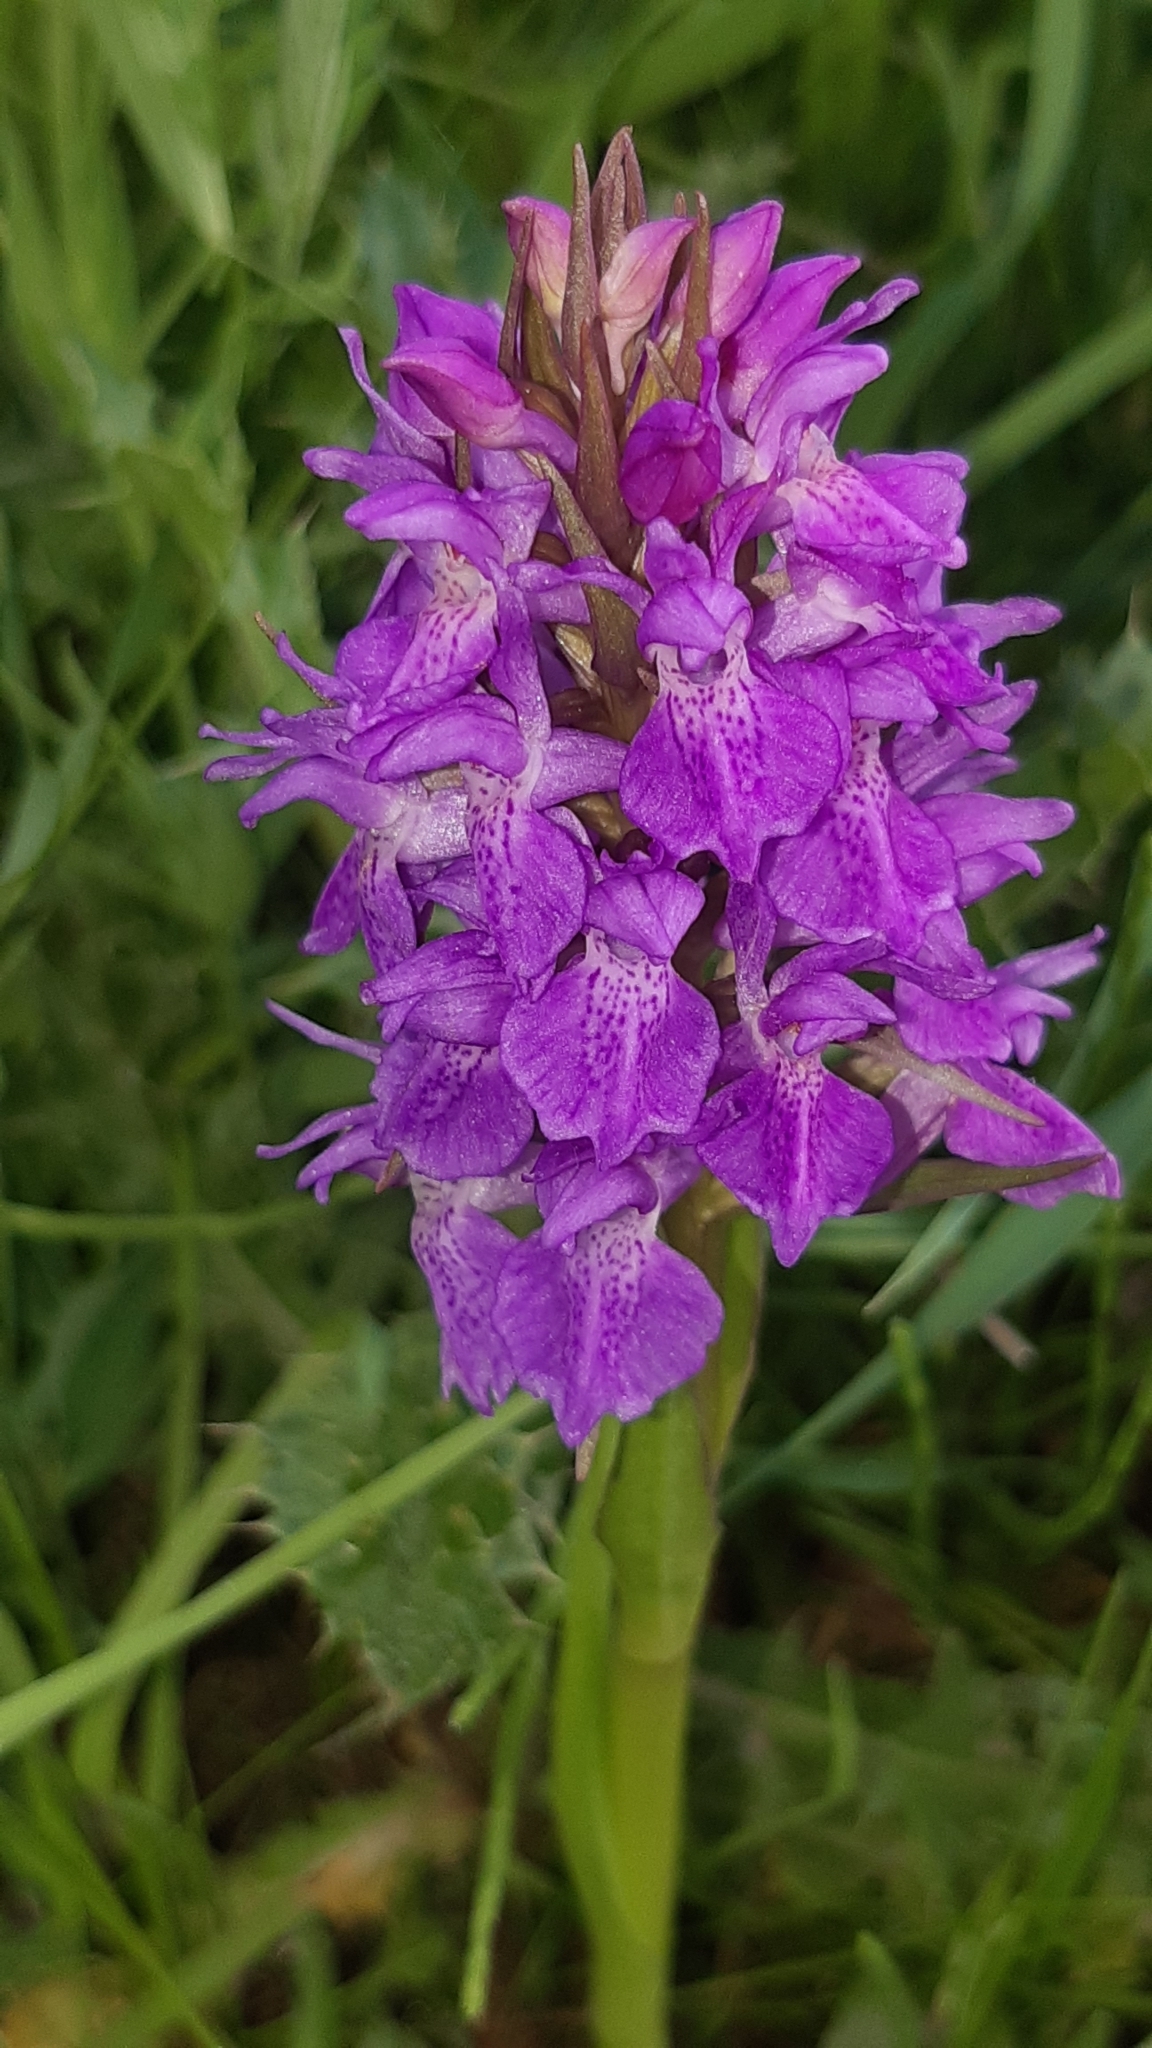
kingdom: Plantae
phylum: Tracheophyta
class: Liliopsida
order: Asparagales
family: Orchidaceae
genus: Dactylorhiza
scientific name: Dactylorhiza majalis
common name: Marsh orchid
